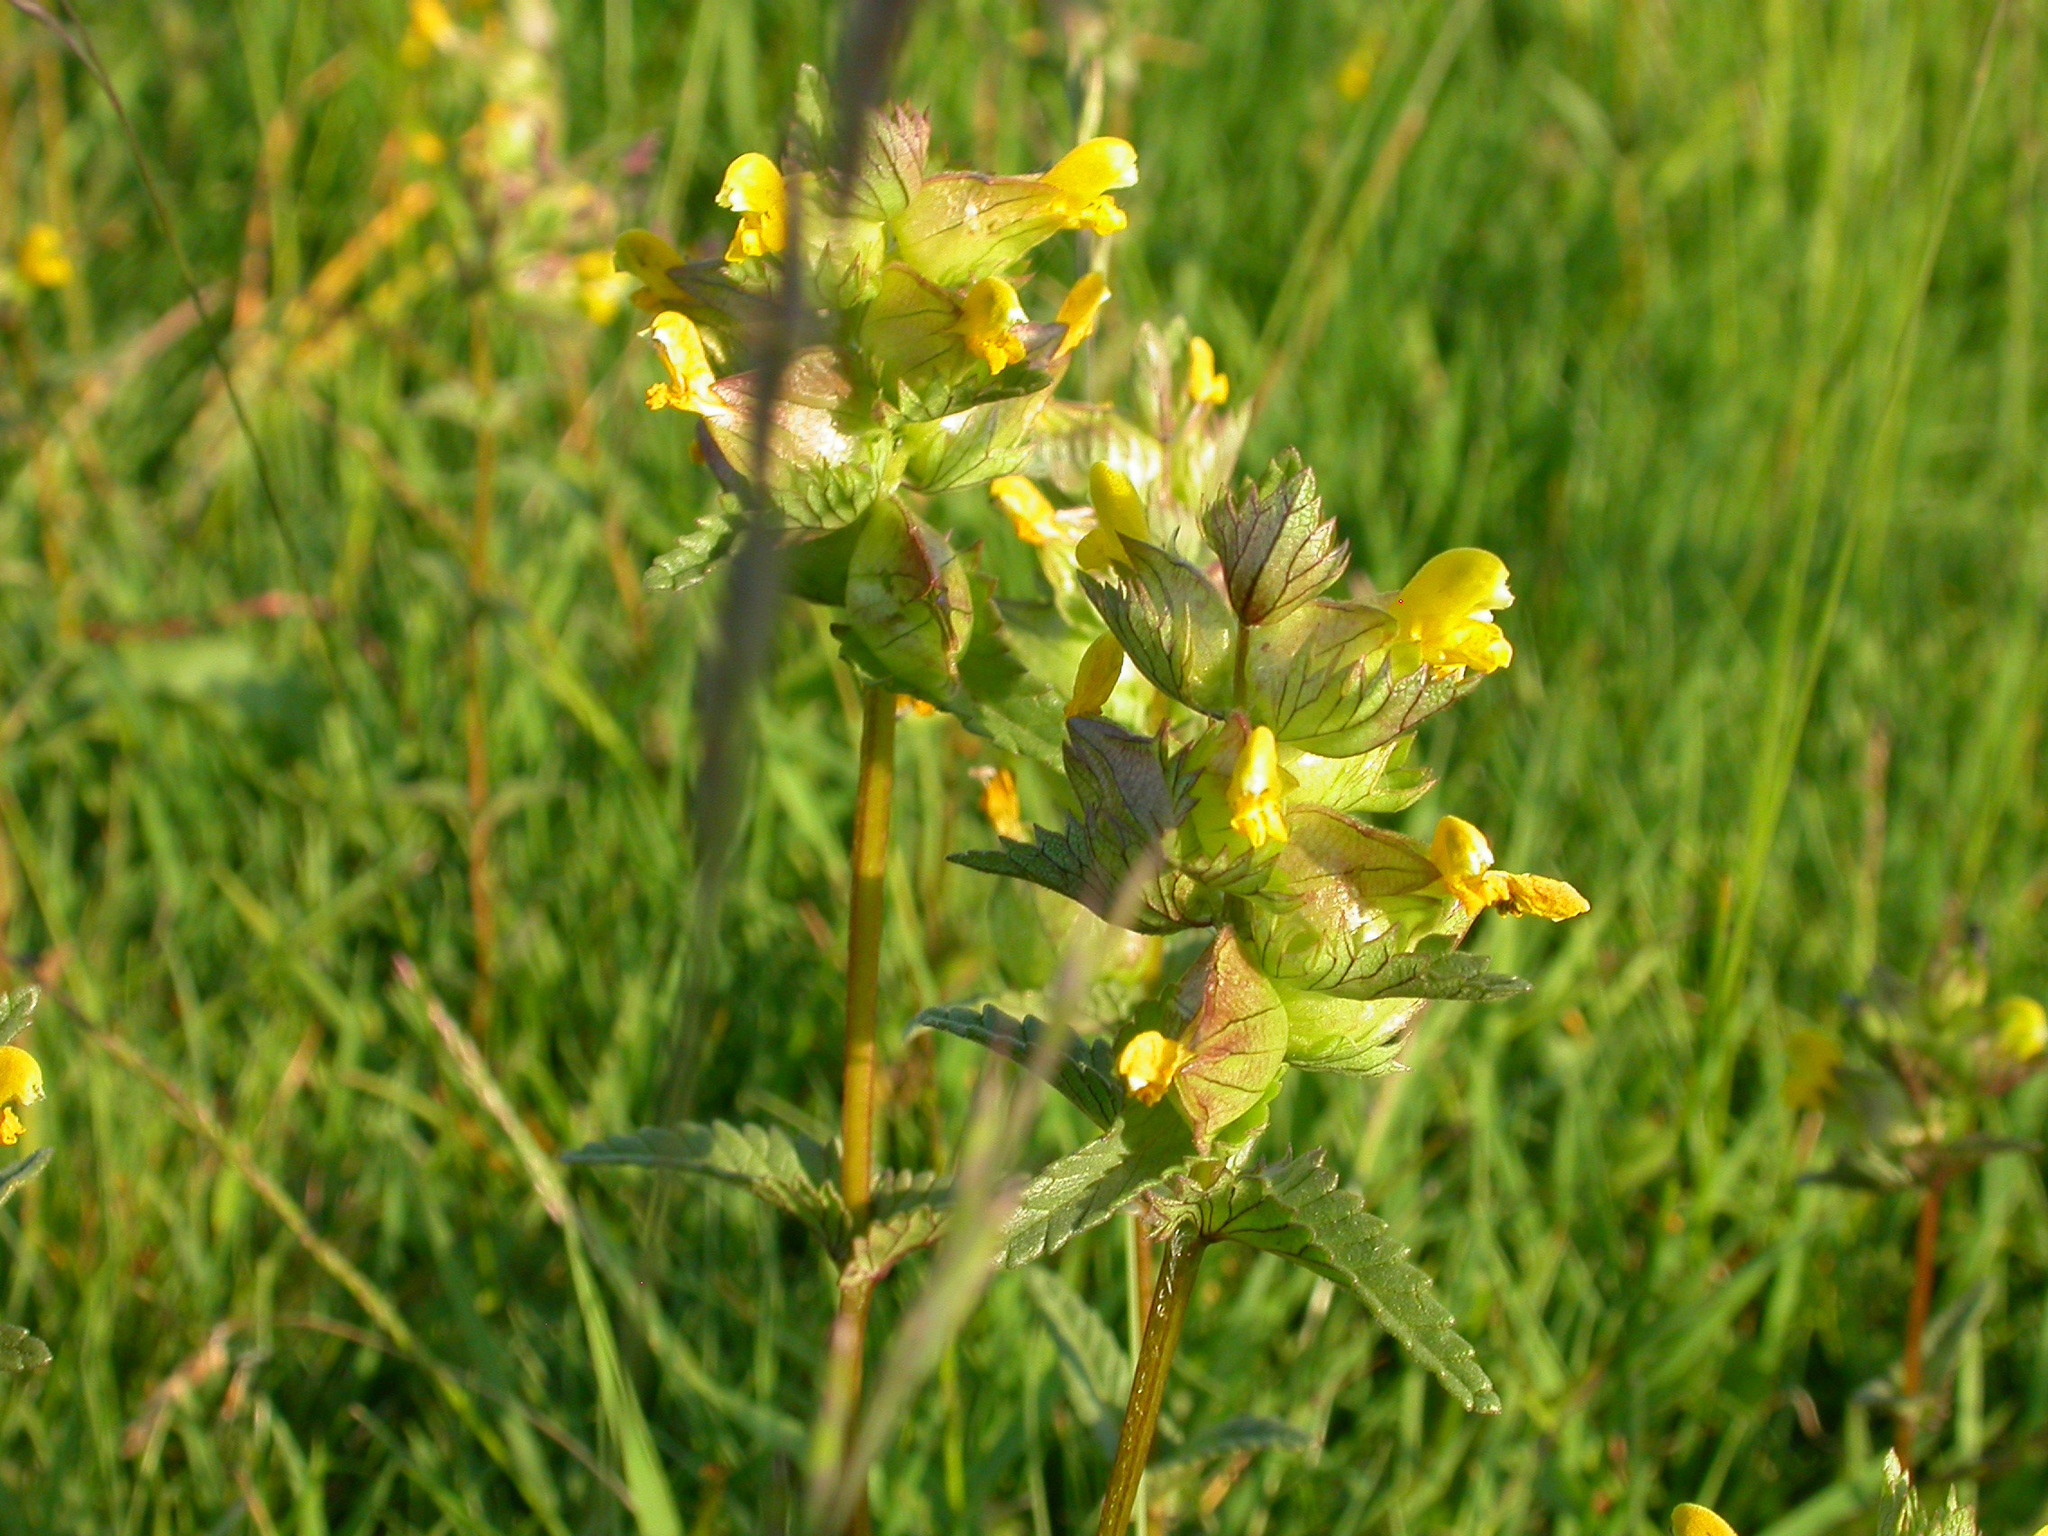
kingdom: Plantae
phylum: Tracheophyta
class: Magnoliopsida
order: Lamiales
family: Orobanchaceae
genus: Rhinanthus
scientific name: Rhinanthus minor
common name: Yellow-rattle
